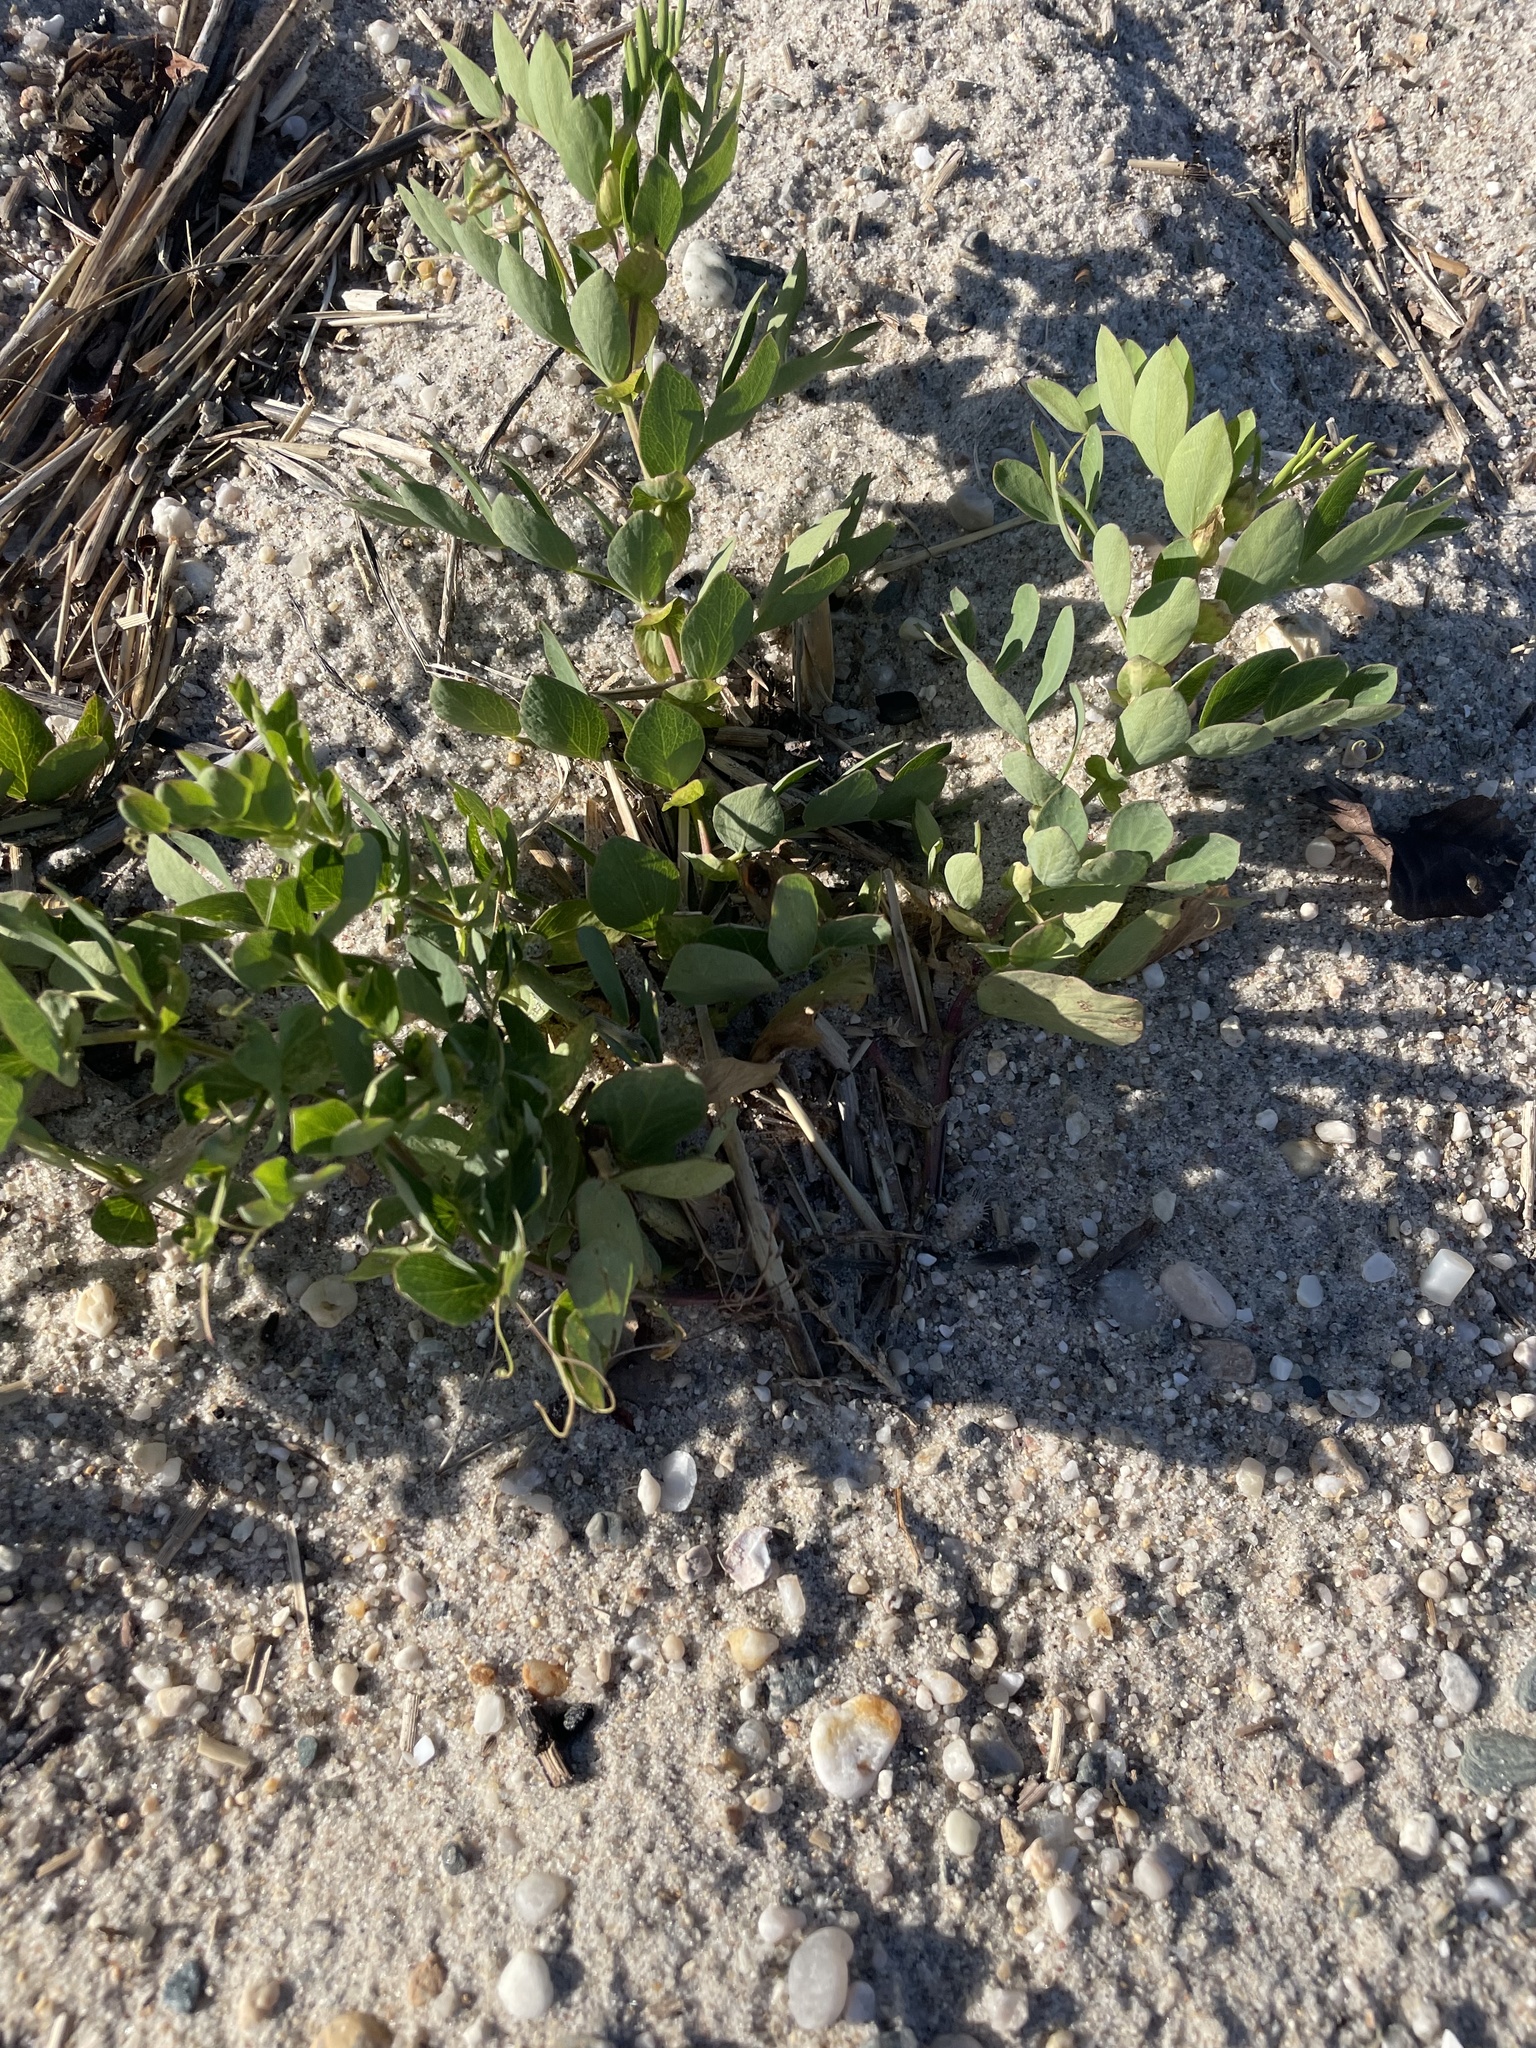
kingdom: Plantae
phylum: Tracheophyta
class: Magnoliopsida
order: Fabales
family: Fabaceae
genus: Lathyrus
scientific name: Lathyrus japonicus
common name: Sea pea
